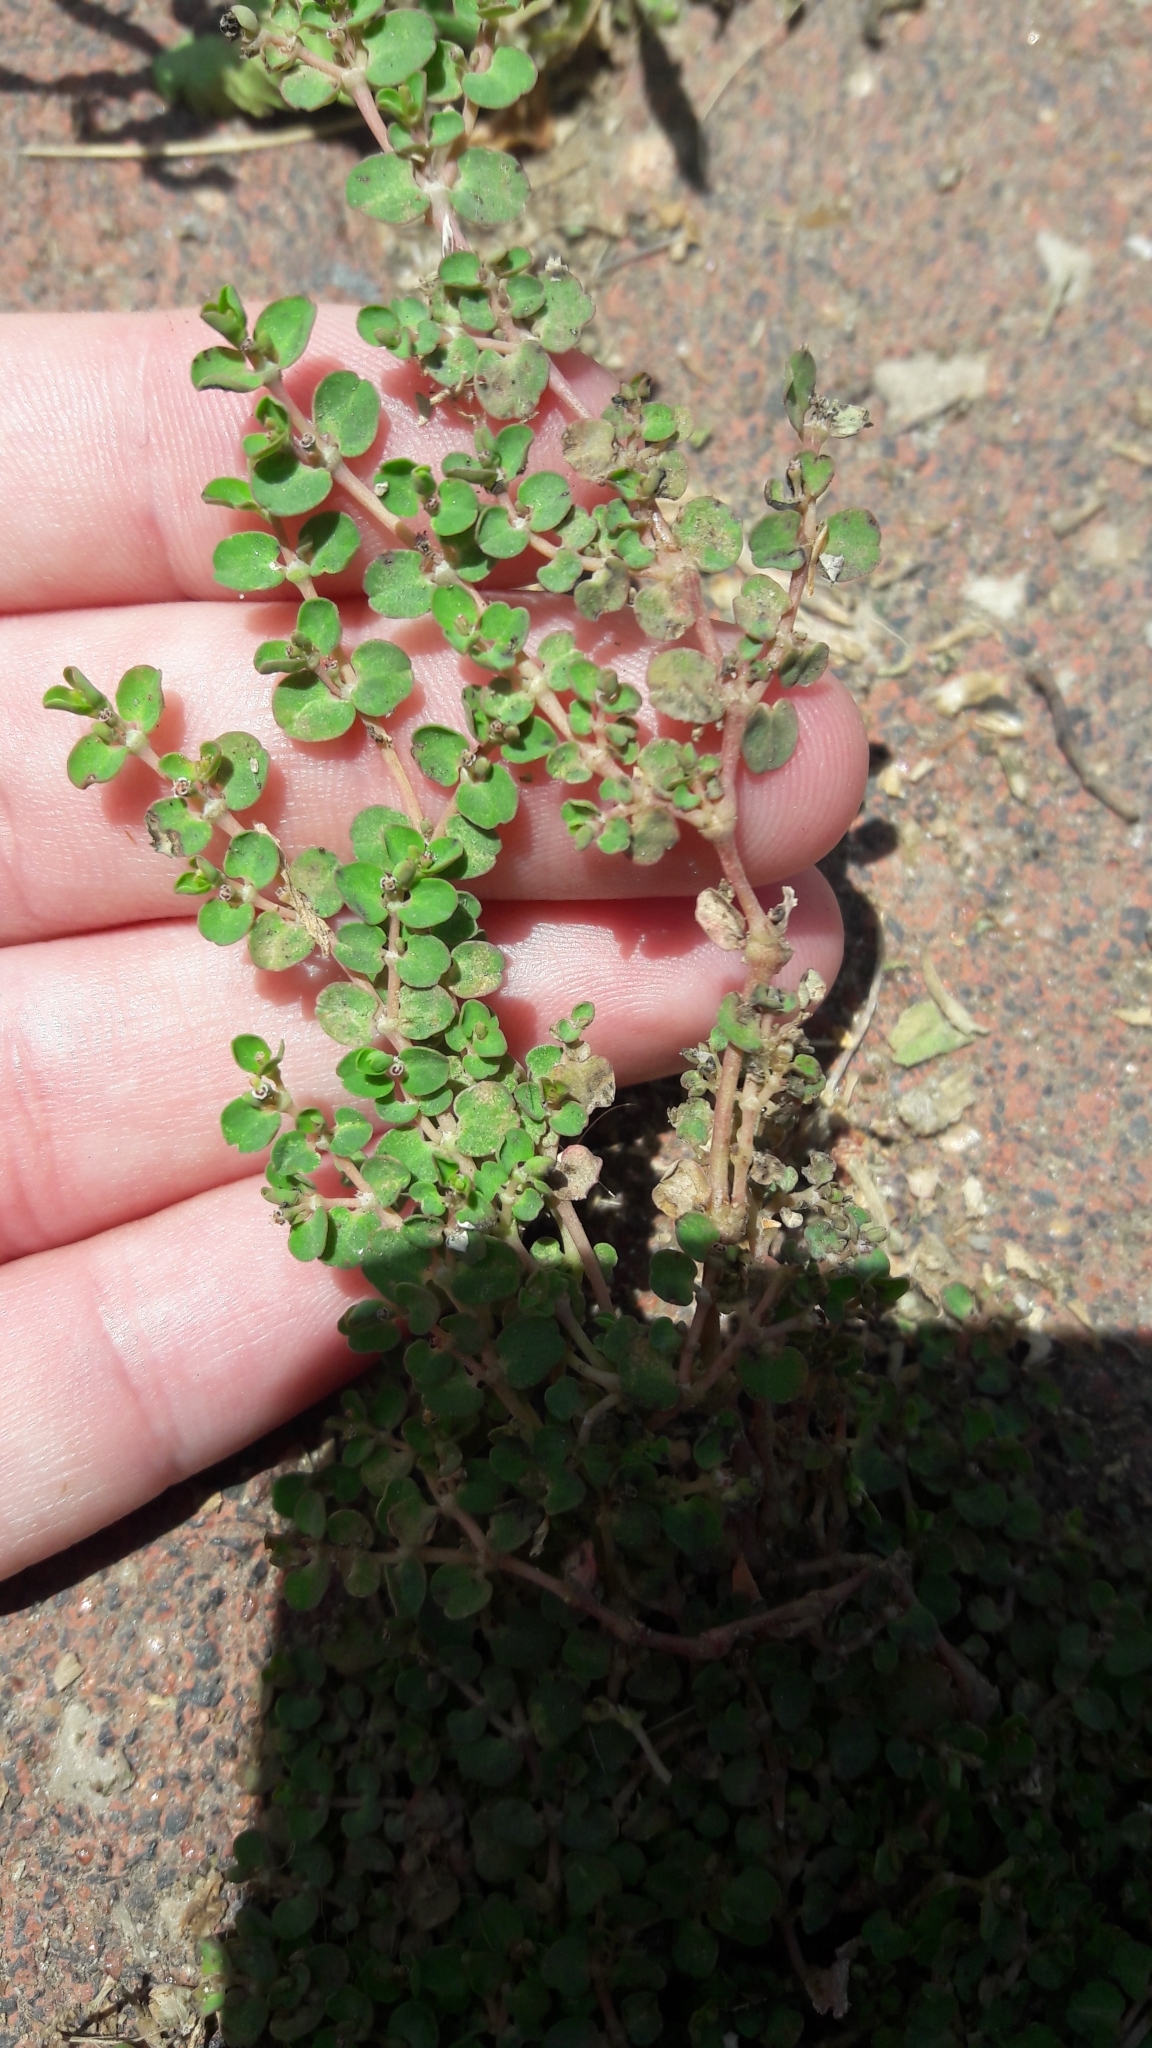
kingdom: Plantae
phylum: Tracheophyta
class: Magnoliopsida
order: Malpighiales
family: Euphorbiaceae
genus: Euphorbia
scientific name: Euphorbia serpens
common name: Matted sandmat
